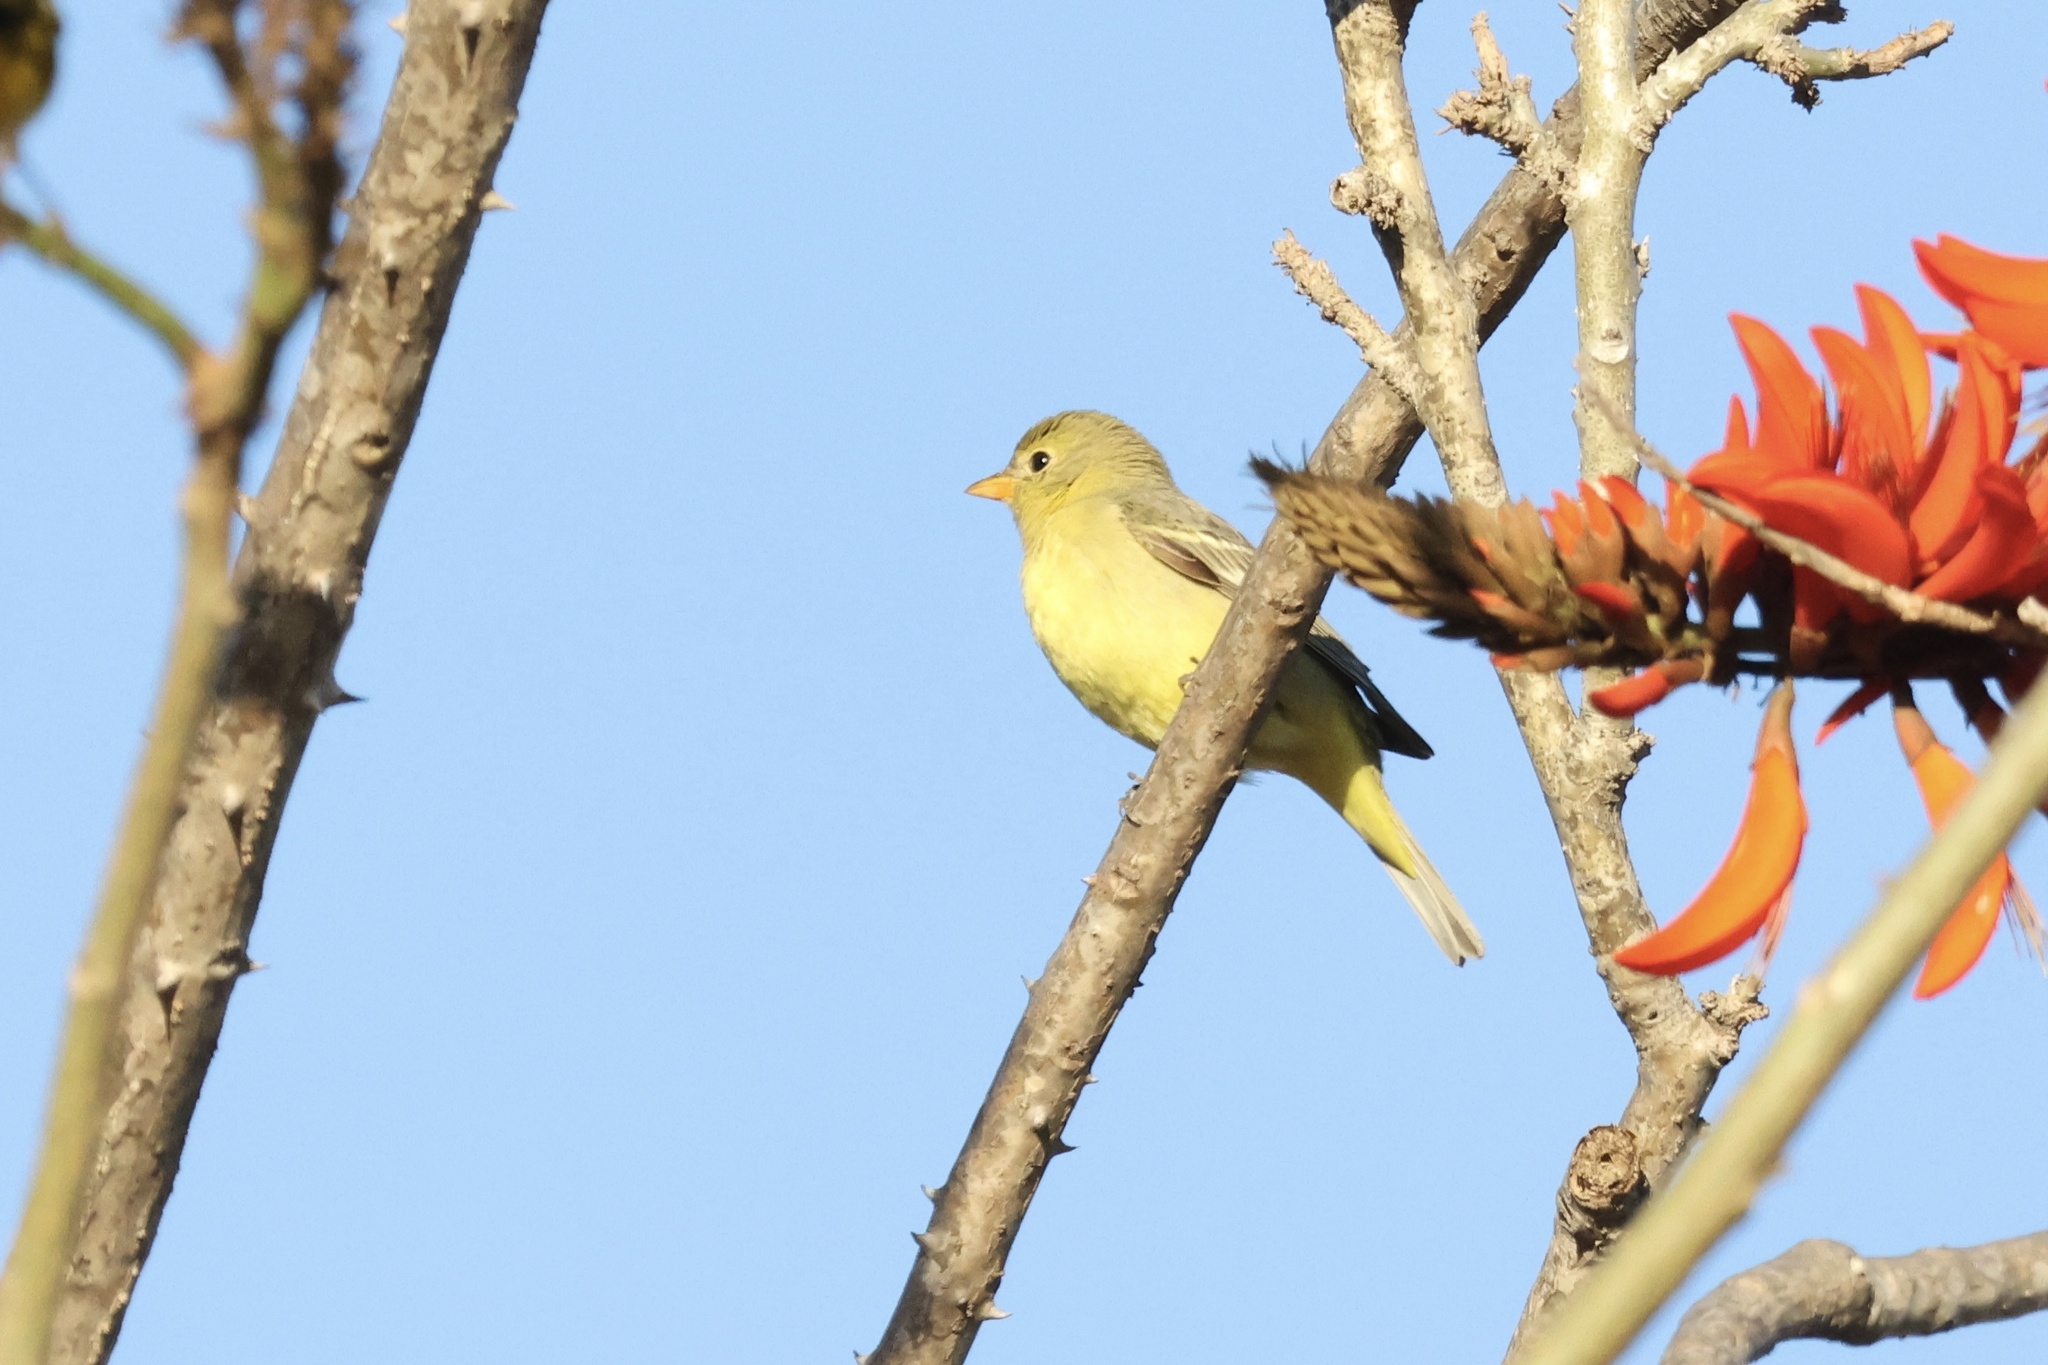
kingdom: Animalia
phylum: Chordata
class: Aves
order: Passeriformes
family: Cardinalidae
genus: Piranga
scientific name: Piranga ludoviciana
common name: Western tanager
